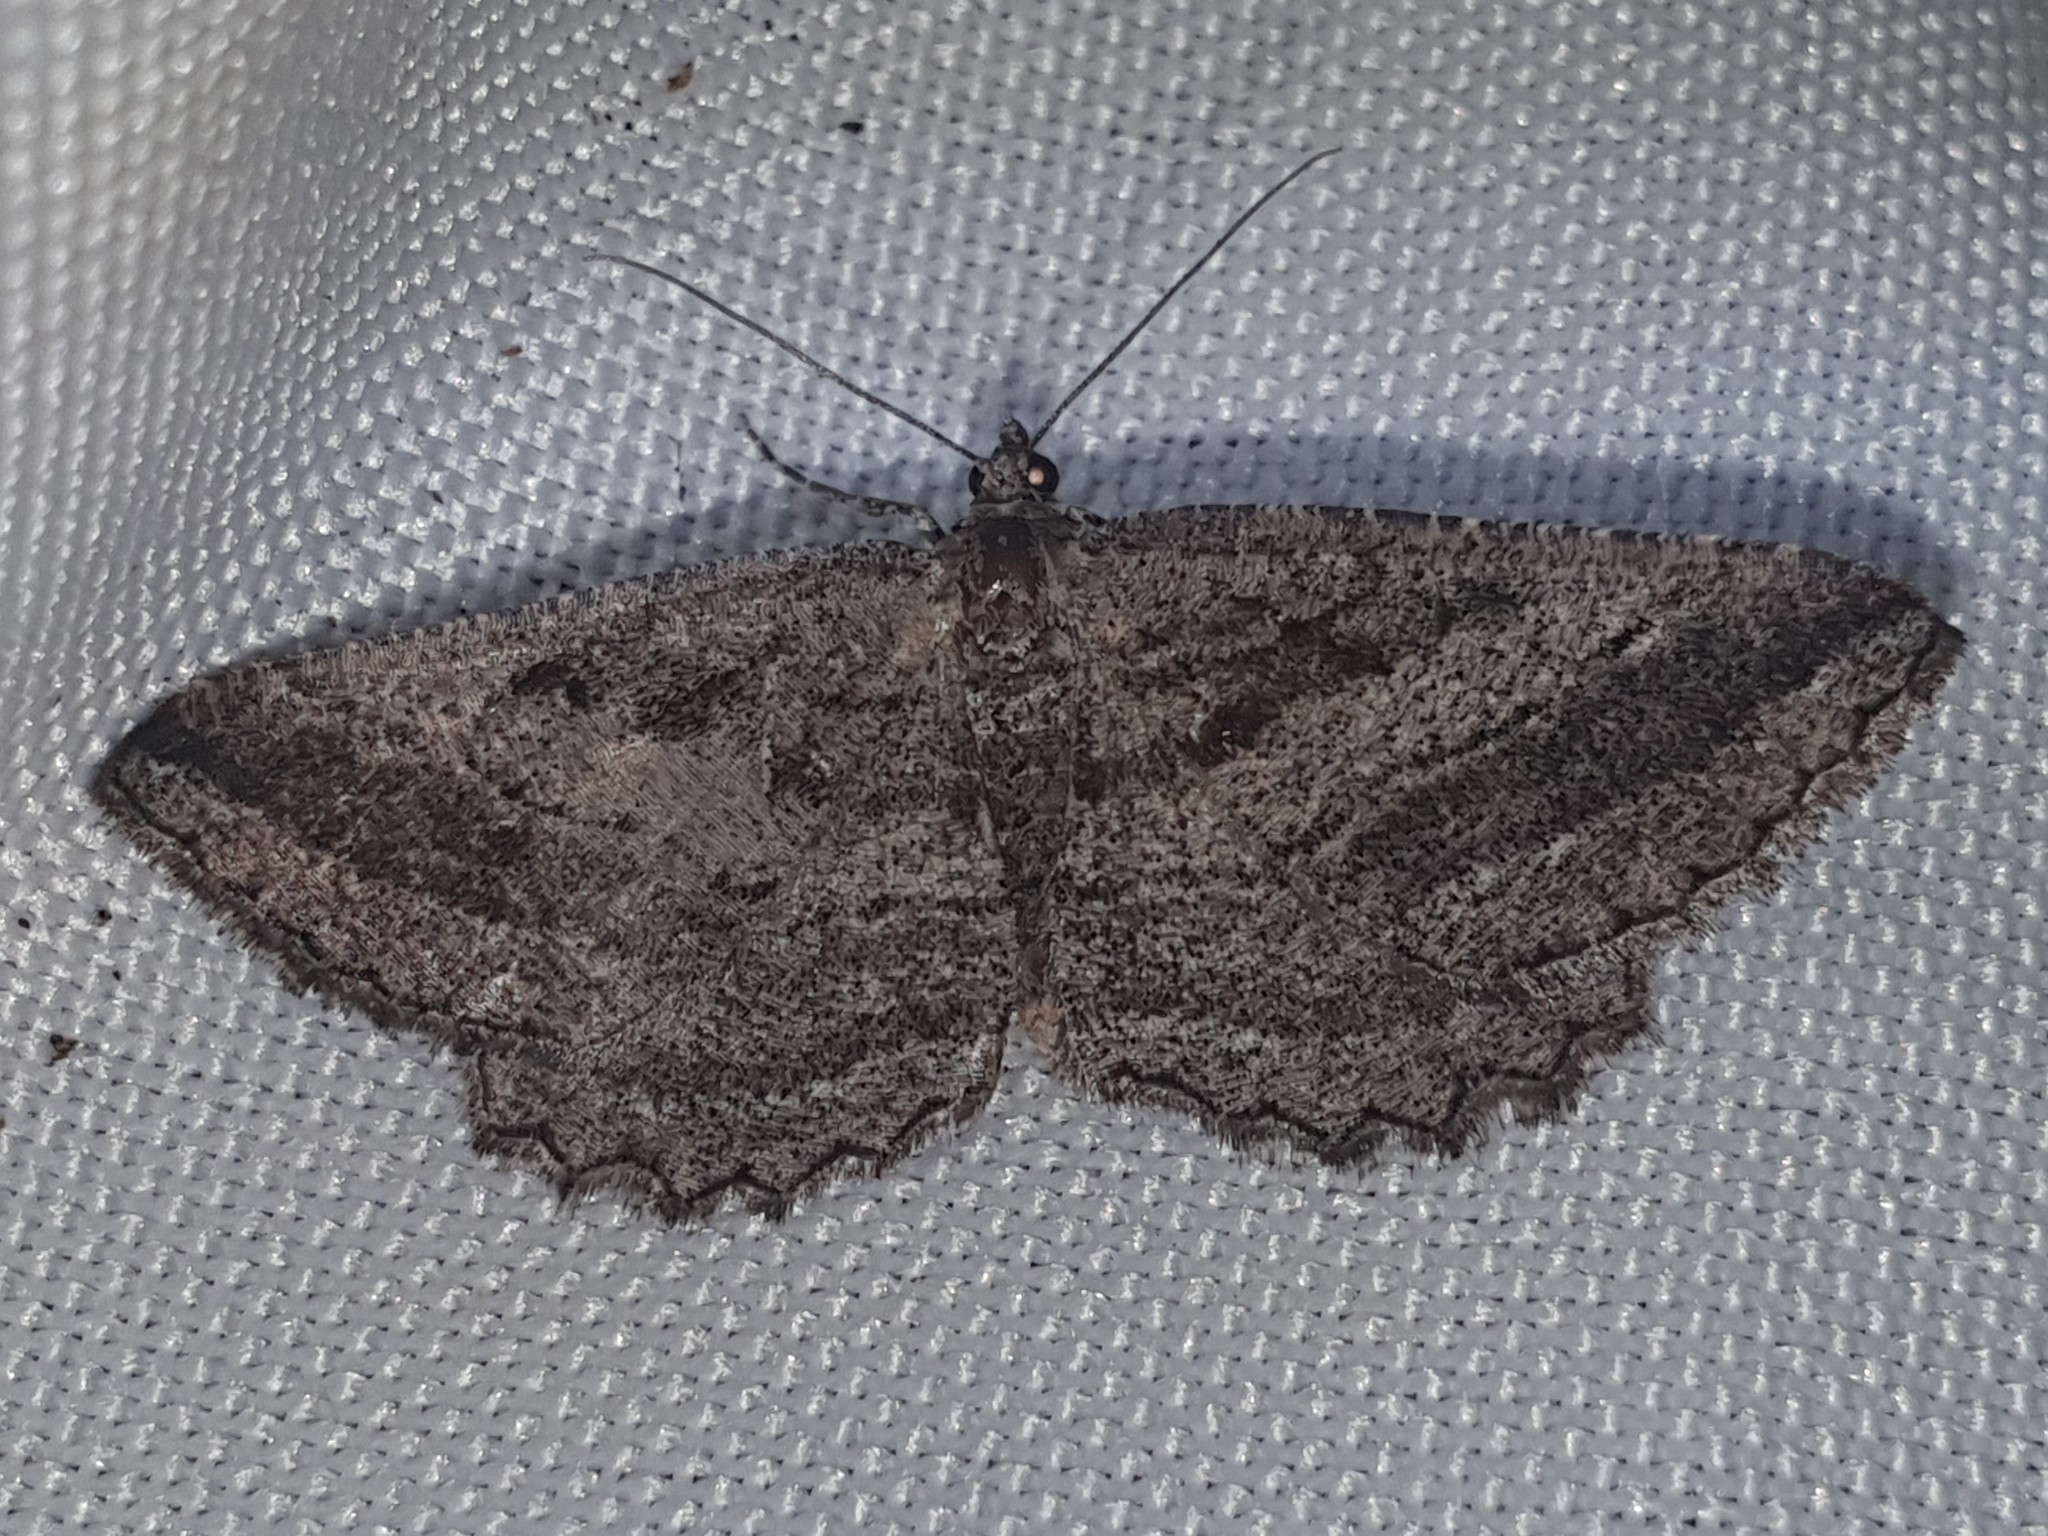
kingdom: Animalia
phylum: Arthropoda
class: Insecta
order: Lepidoptera
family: Geometridae
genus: Rhoptria
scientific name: Rhoptria asperaria
